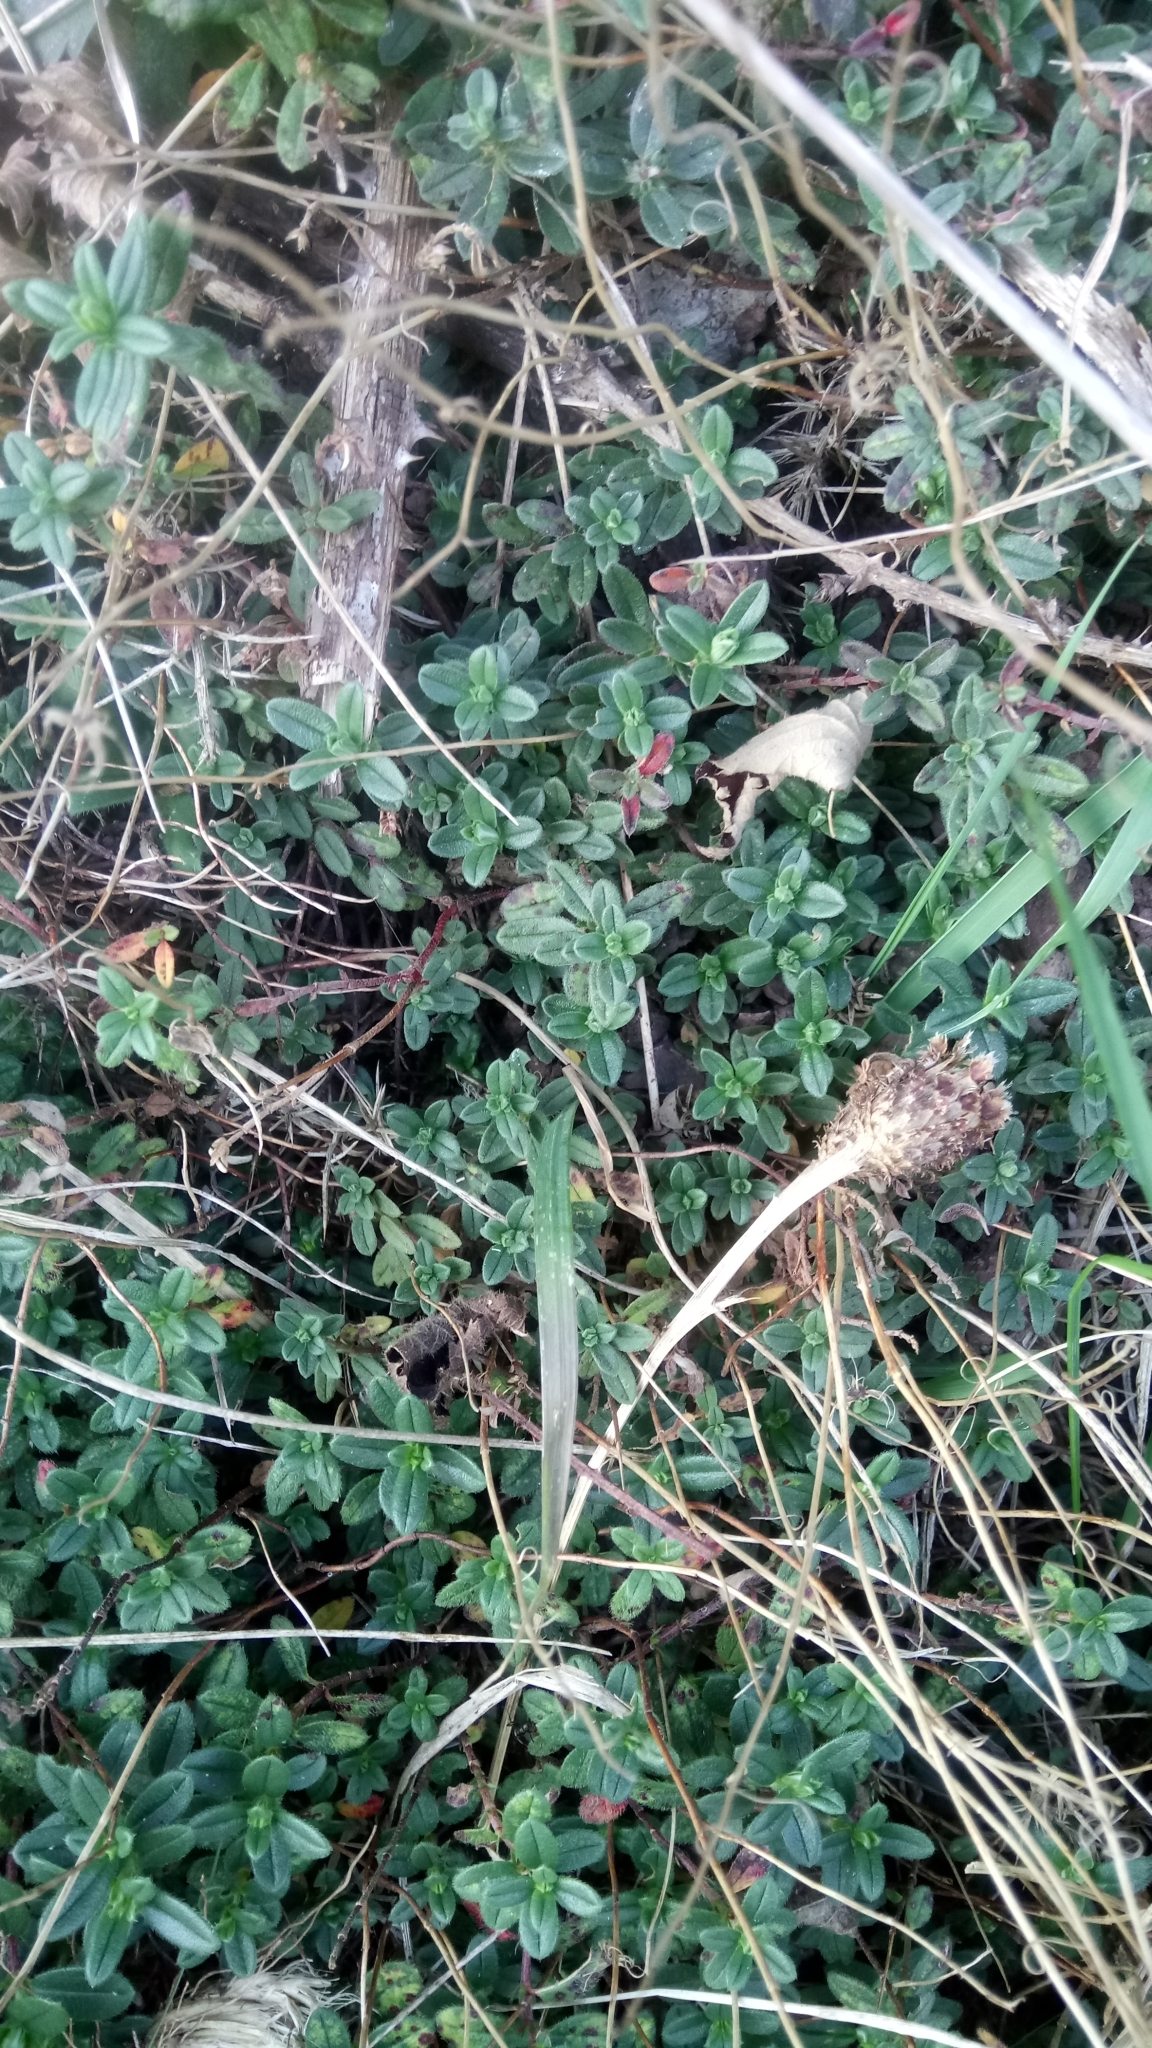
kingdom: Plantae
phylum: Tracheophyta
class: Magnoliopsida
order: Malvales
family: Cistaceae
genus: Helianthemum
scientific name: Helianthemum nummularium
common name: Common rock-rose
